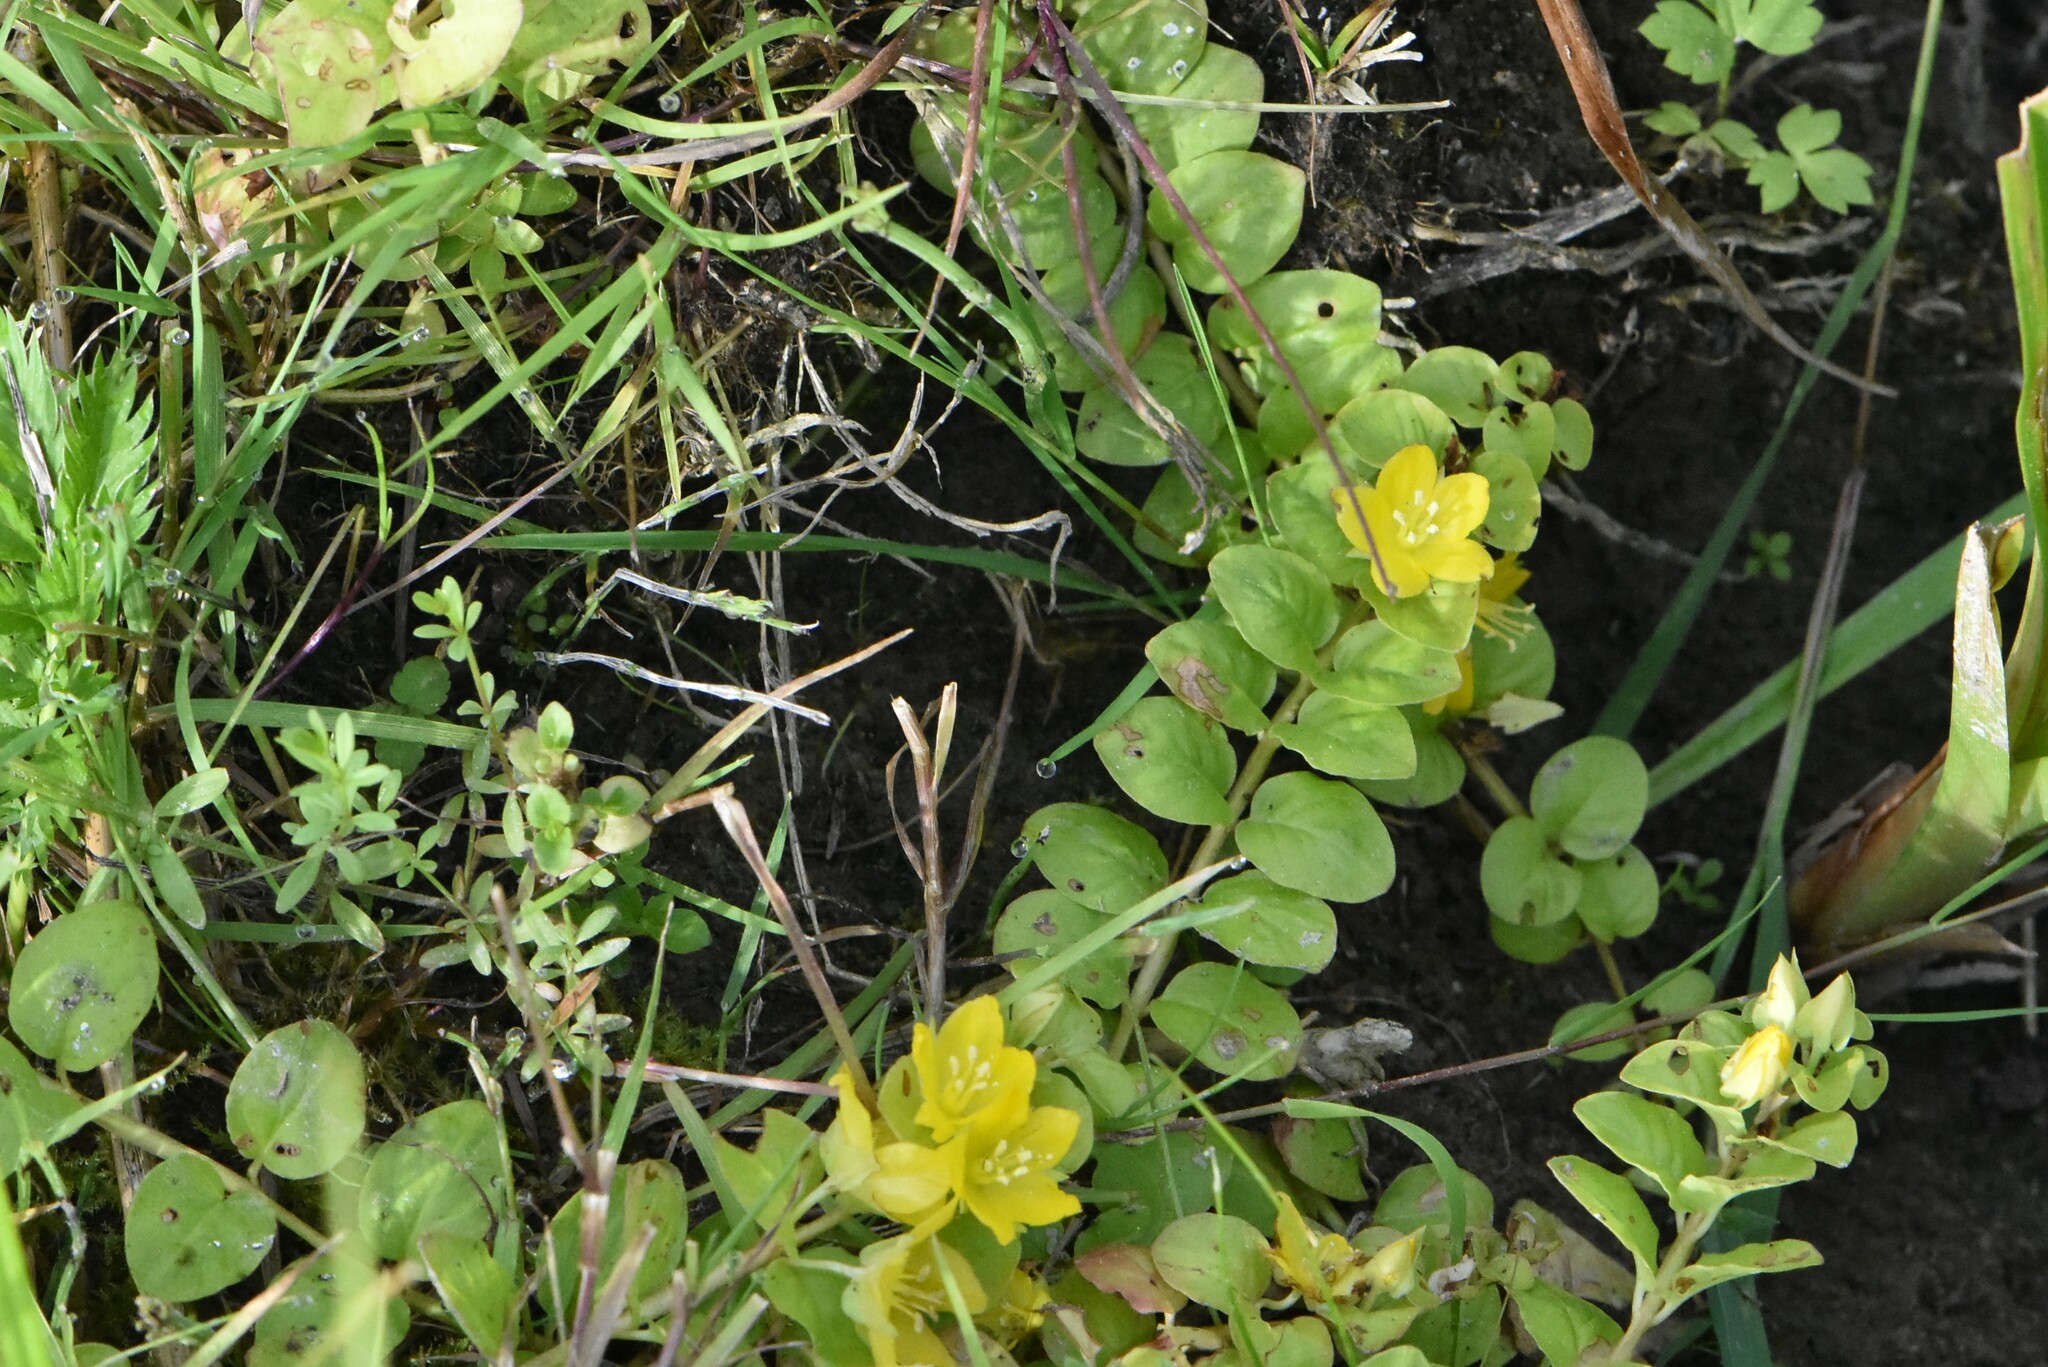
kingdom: Plantae
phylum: Tracheophyta
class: Magnoliopsida
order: Ericales
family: Primulaceae
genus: Lysimachia
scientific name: Lysimachia nummularia
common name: Moneywort
